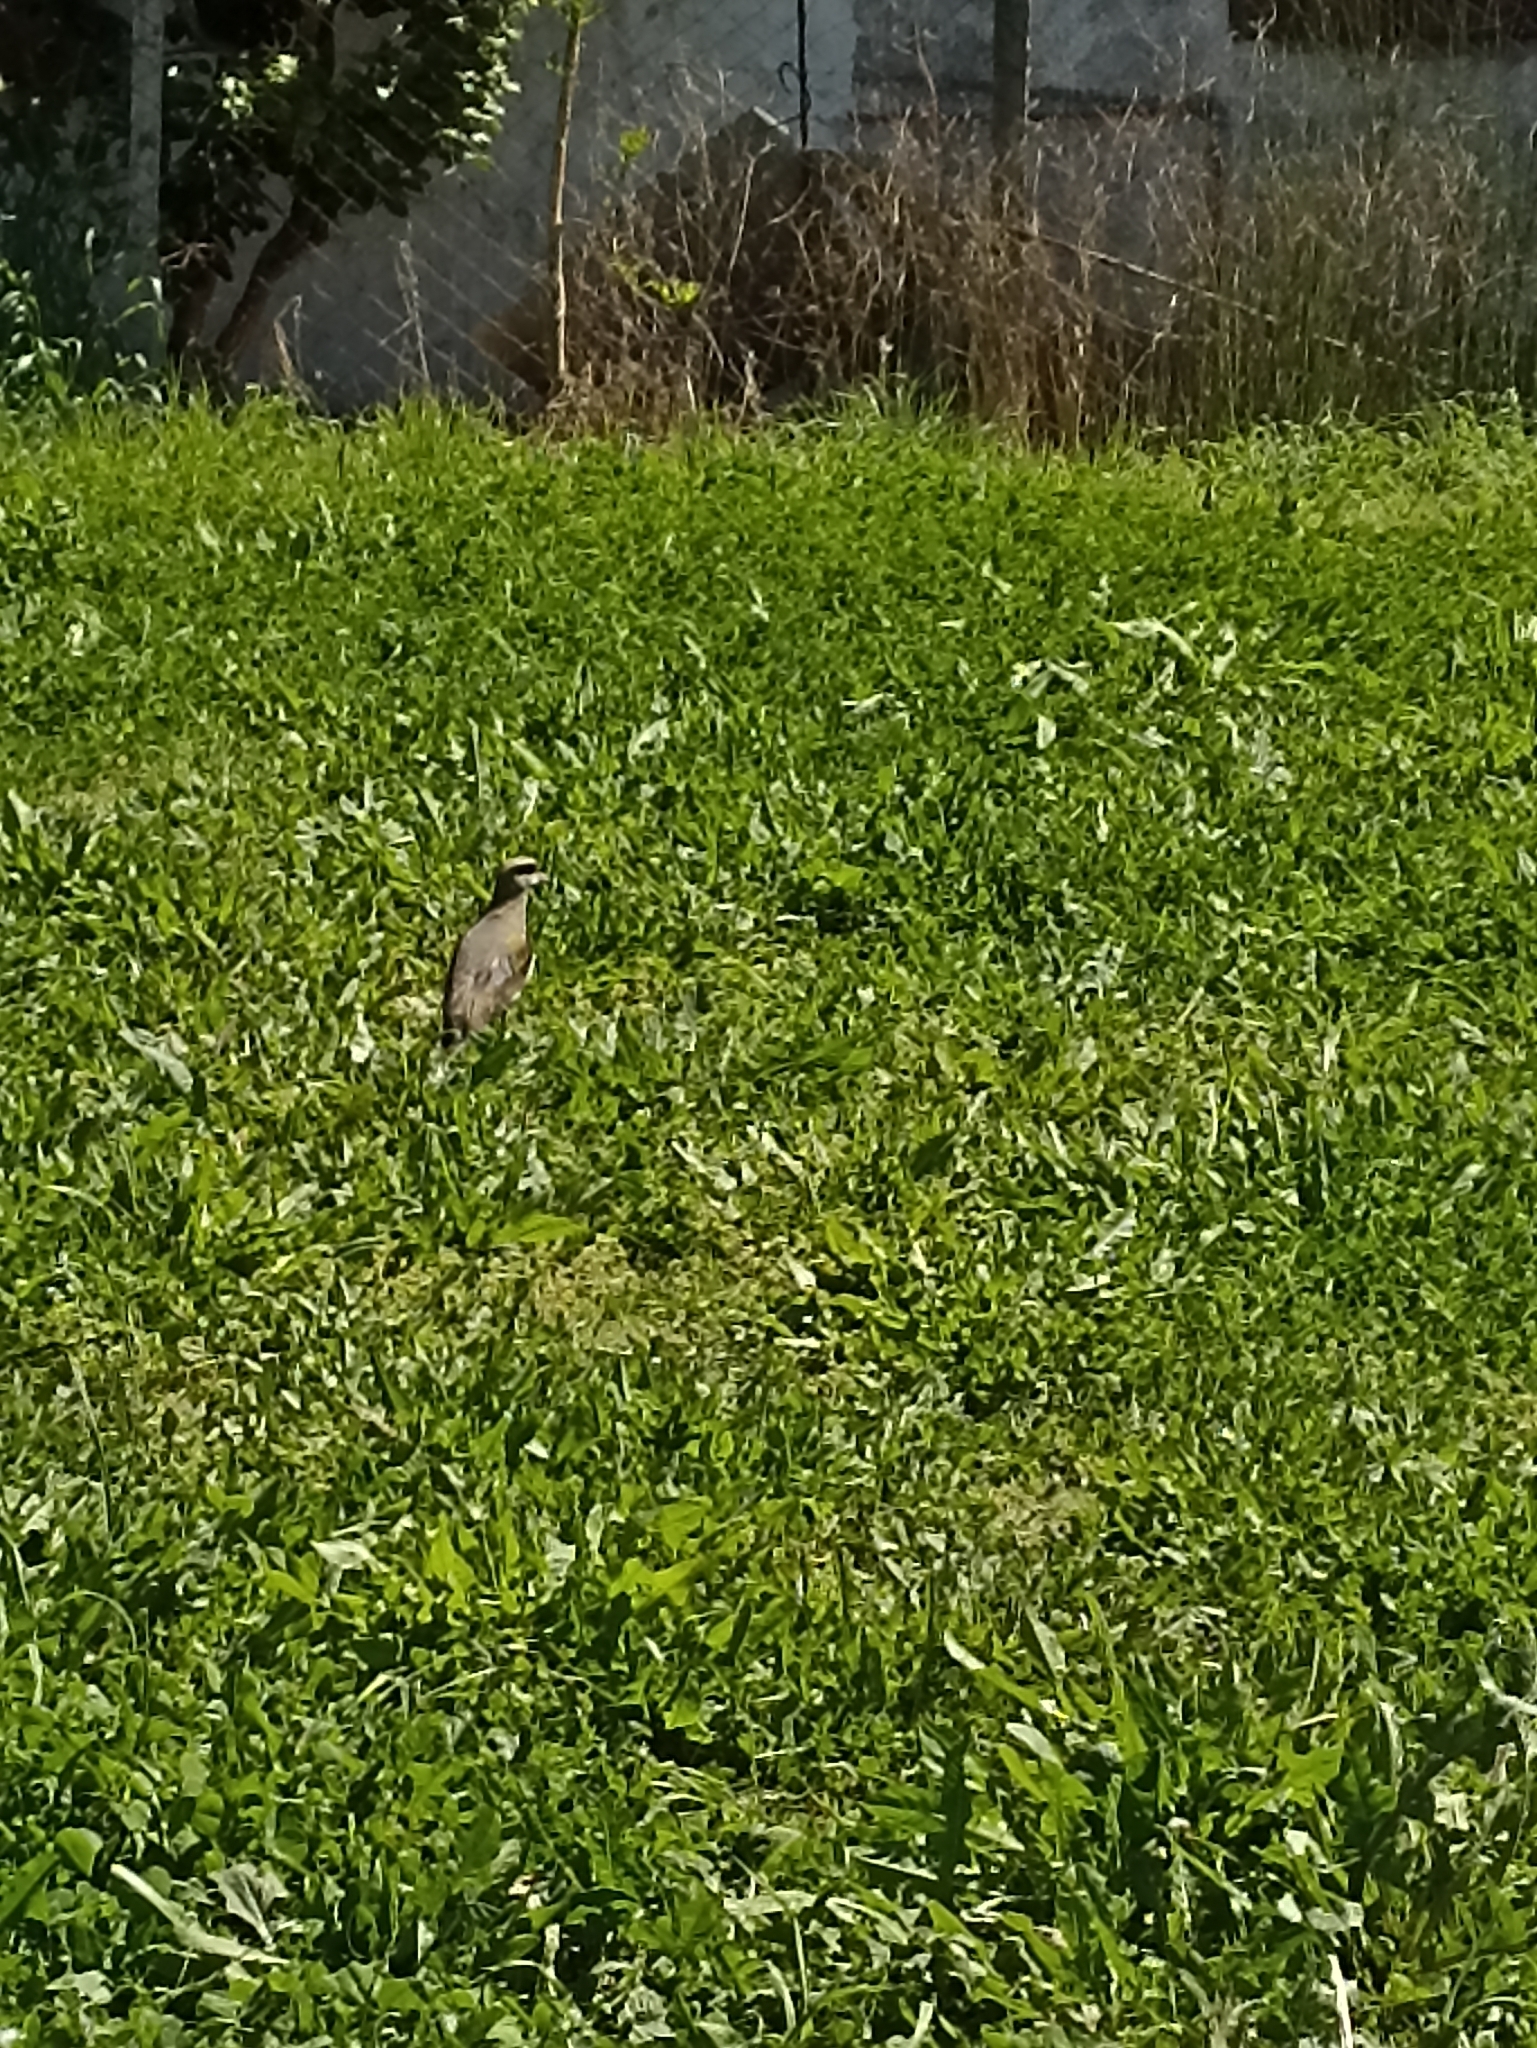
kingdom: Animalia
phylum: Chordata
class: Aves
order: Charadriiformes
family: Charadriidae
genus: Vanellus
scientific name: Vanellus chilensis
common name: Southern lapwing
